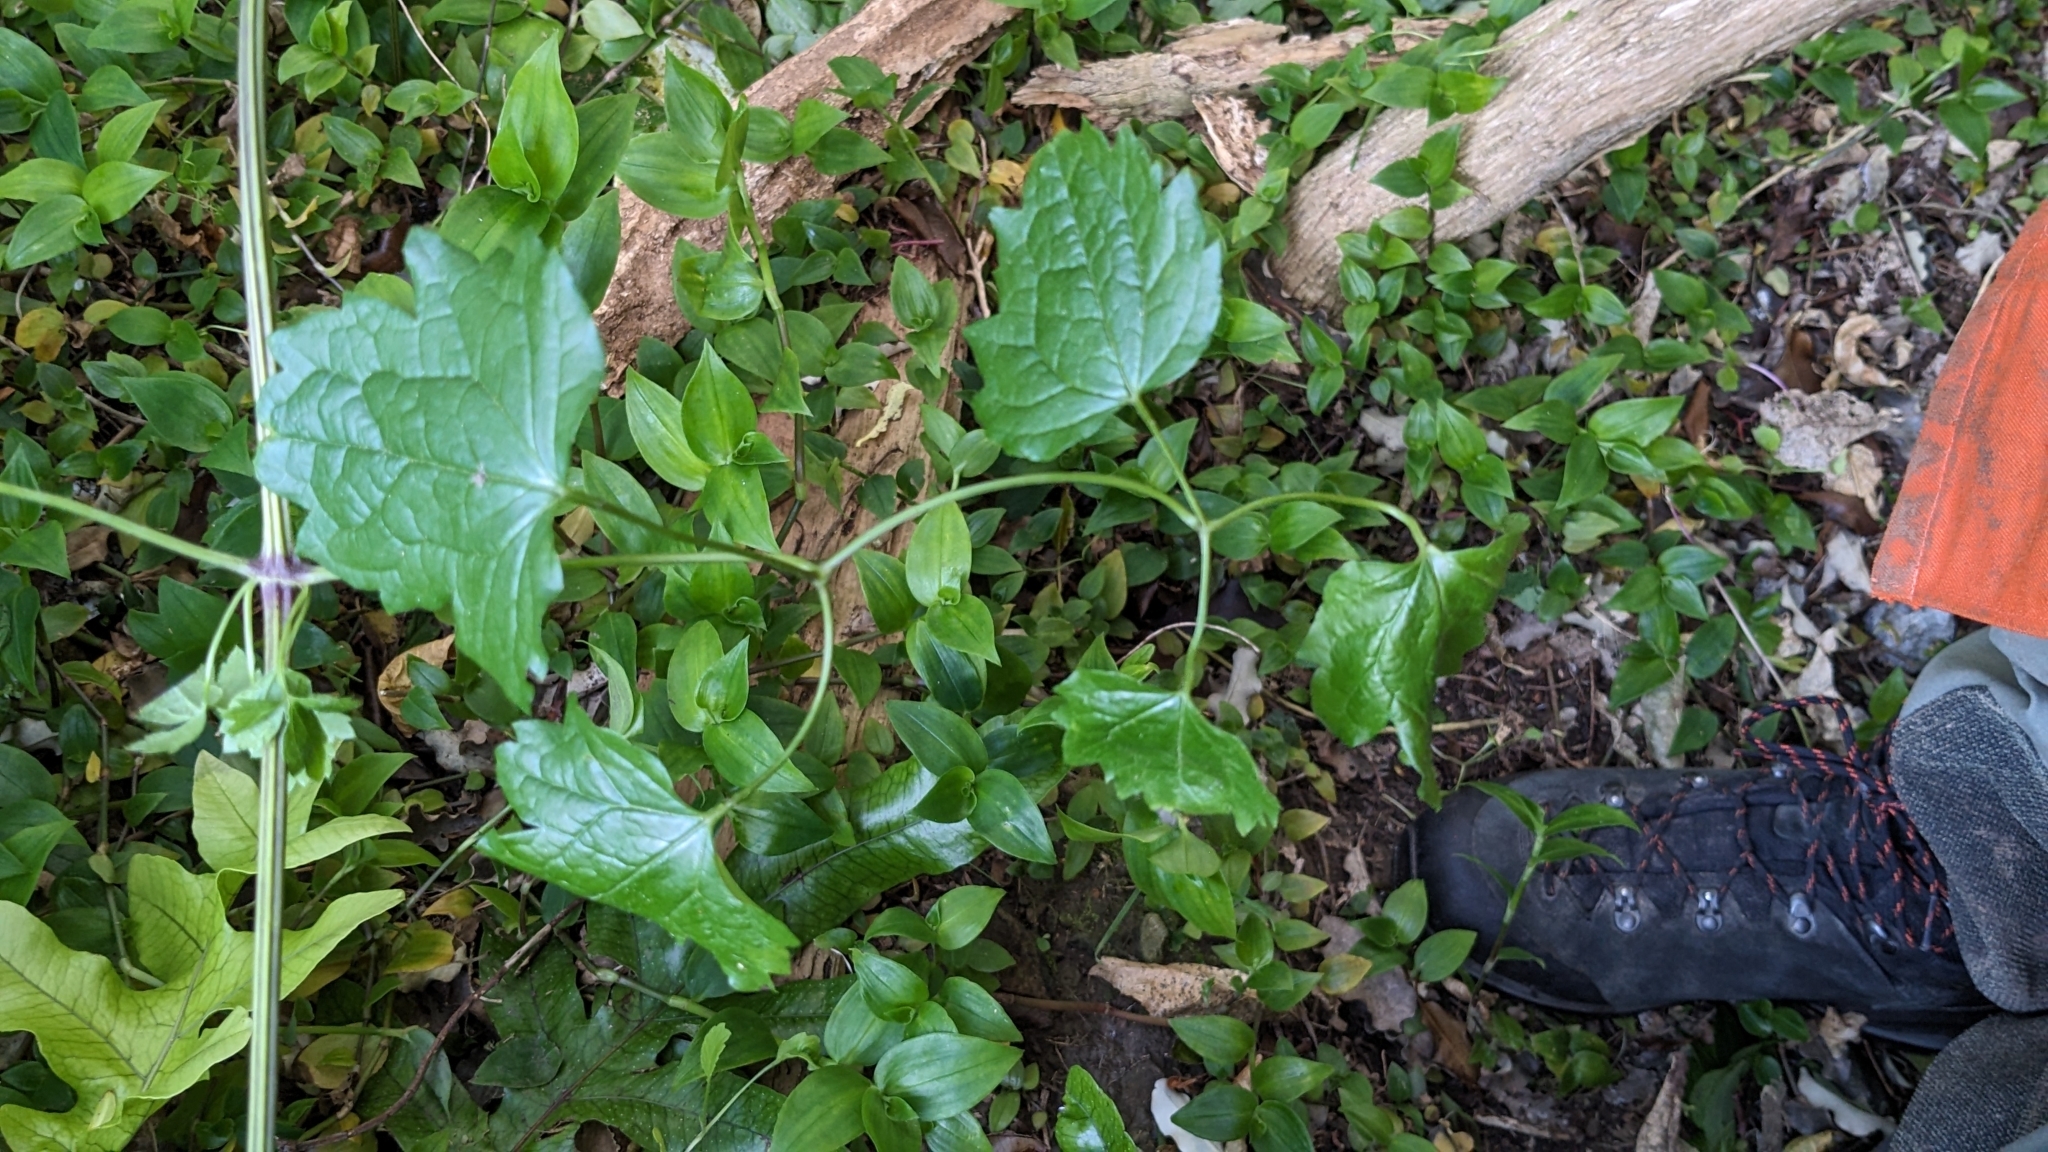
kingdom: Plantae
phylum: Tracheophyta
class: Magnoliopsida
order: Ranunculales
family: Ranunculaceae
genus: Clematis
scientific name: Clematis vitalba
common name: Evergreen clematis
